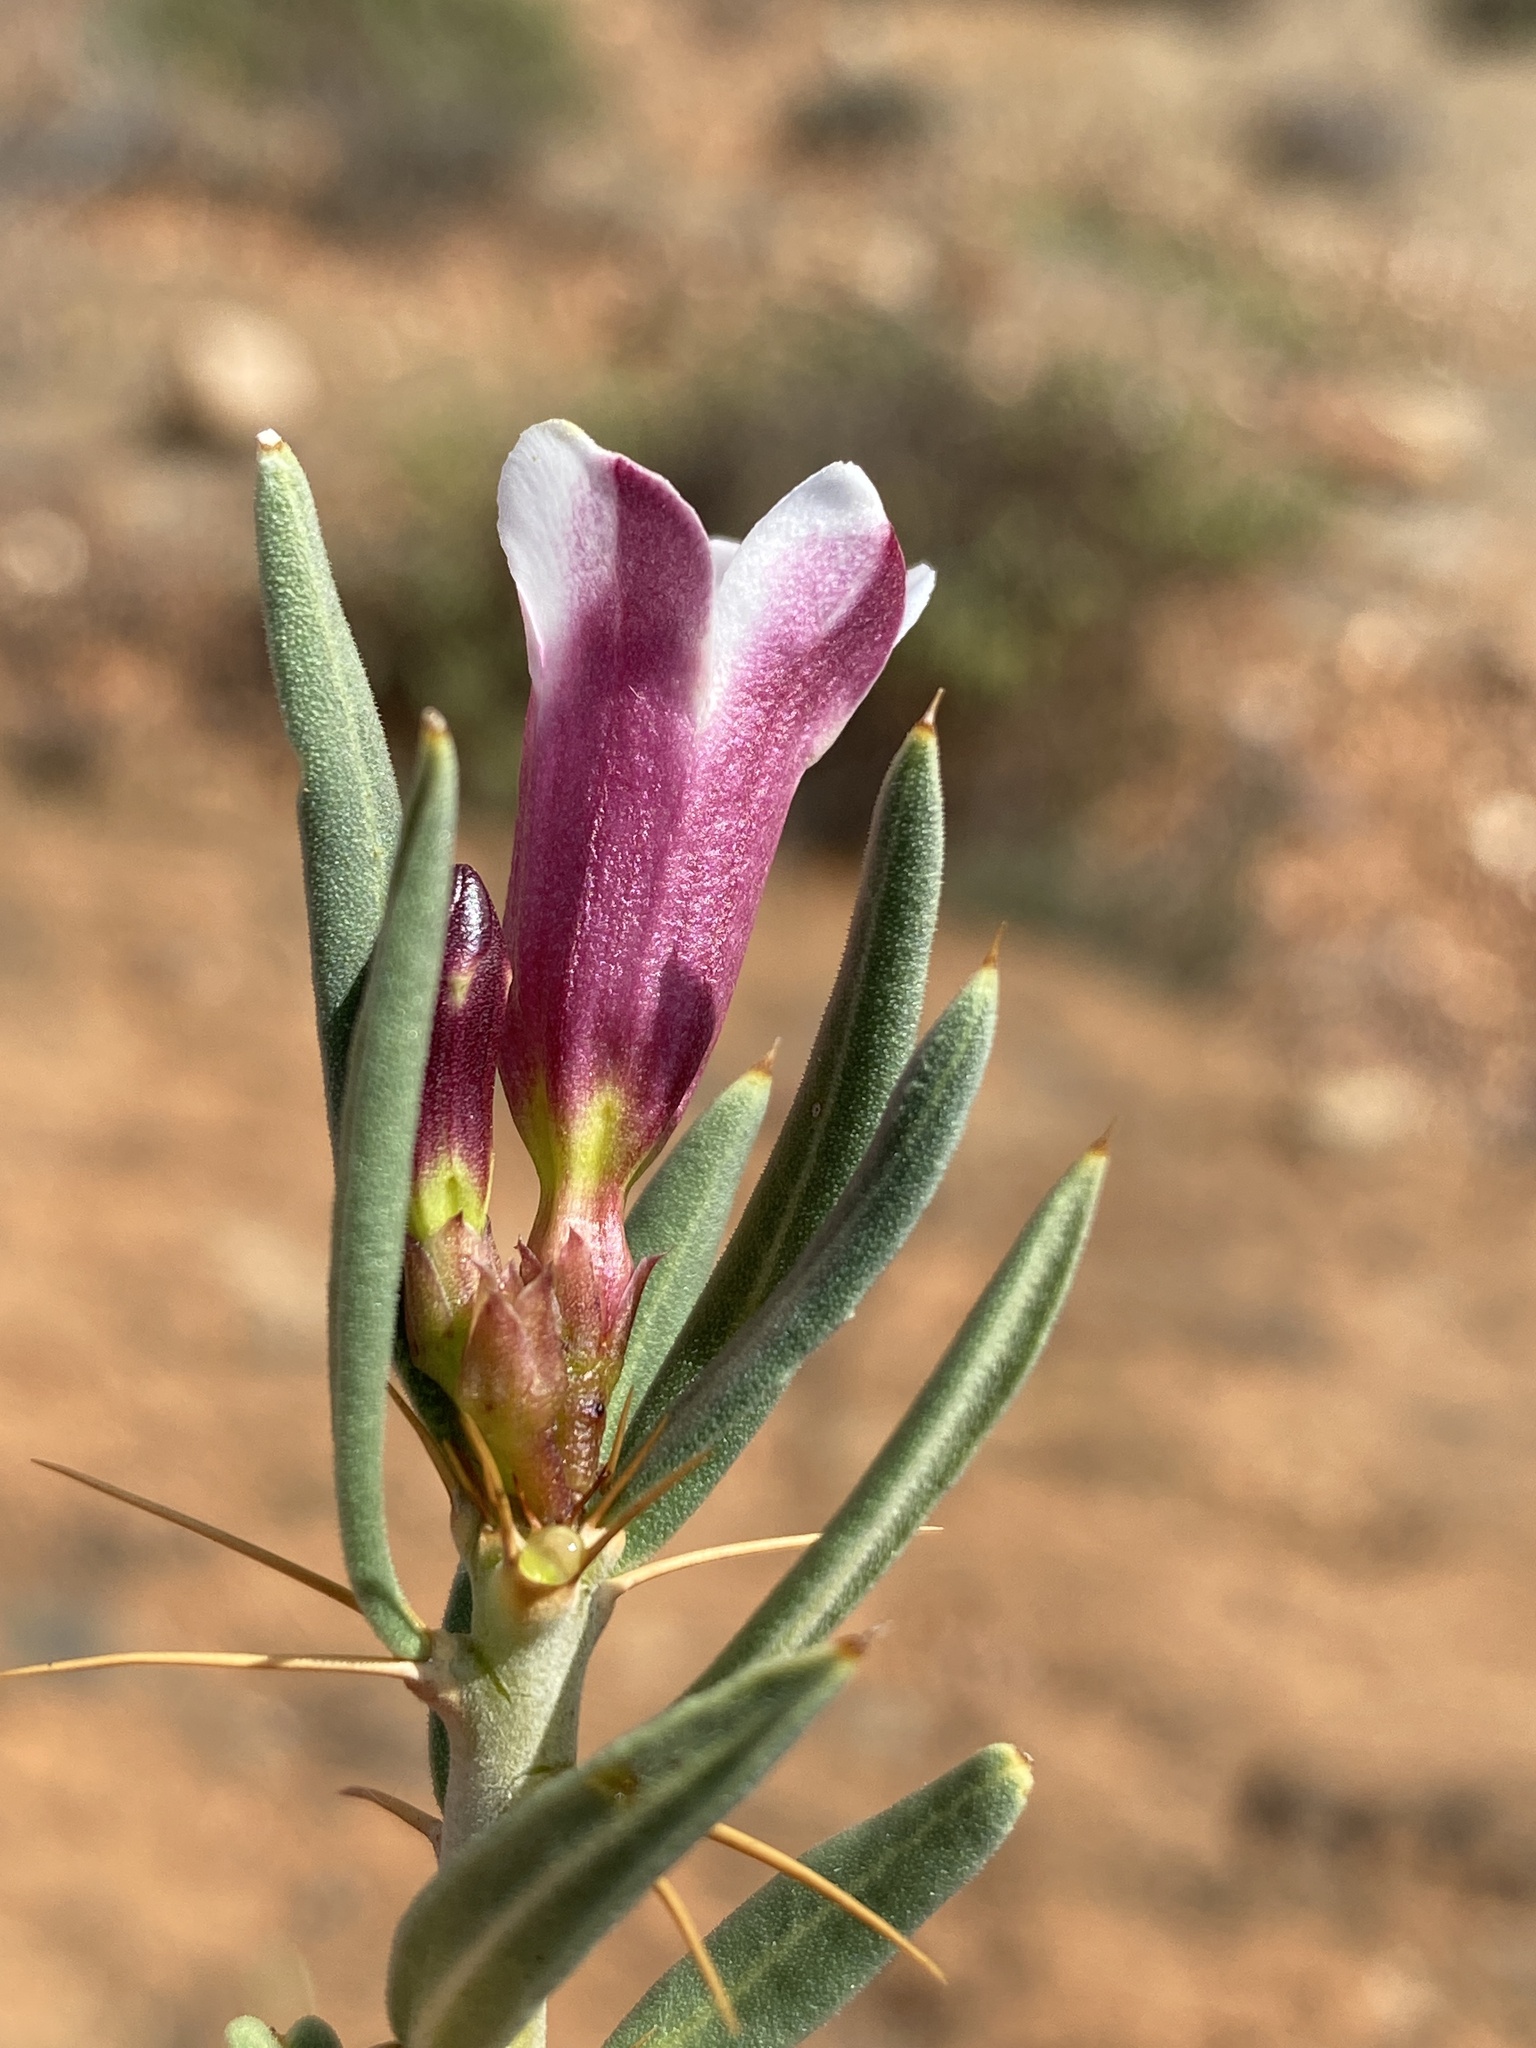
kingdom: Plantae
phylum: Tracheophyta
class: Magnoliopsida
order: Gentianales
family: Apocynaceae
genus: Pachypodium
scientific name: Pachypodium bispinosum
